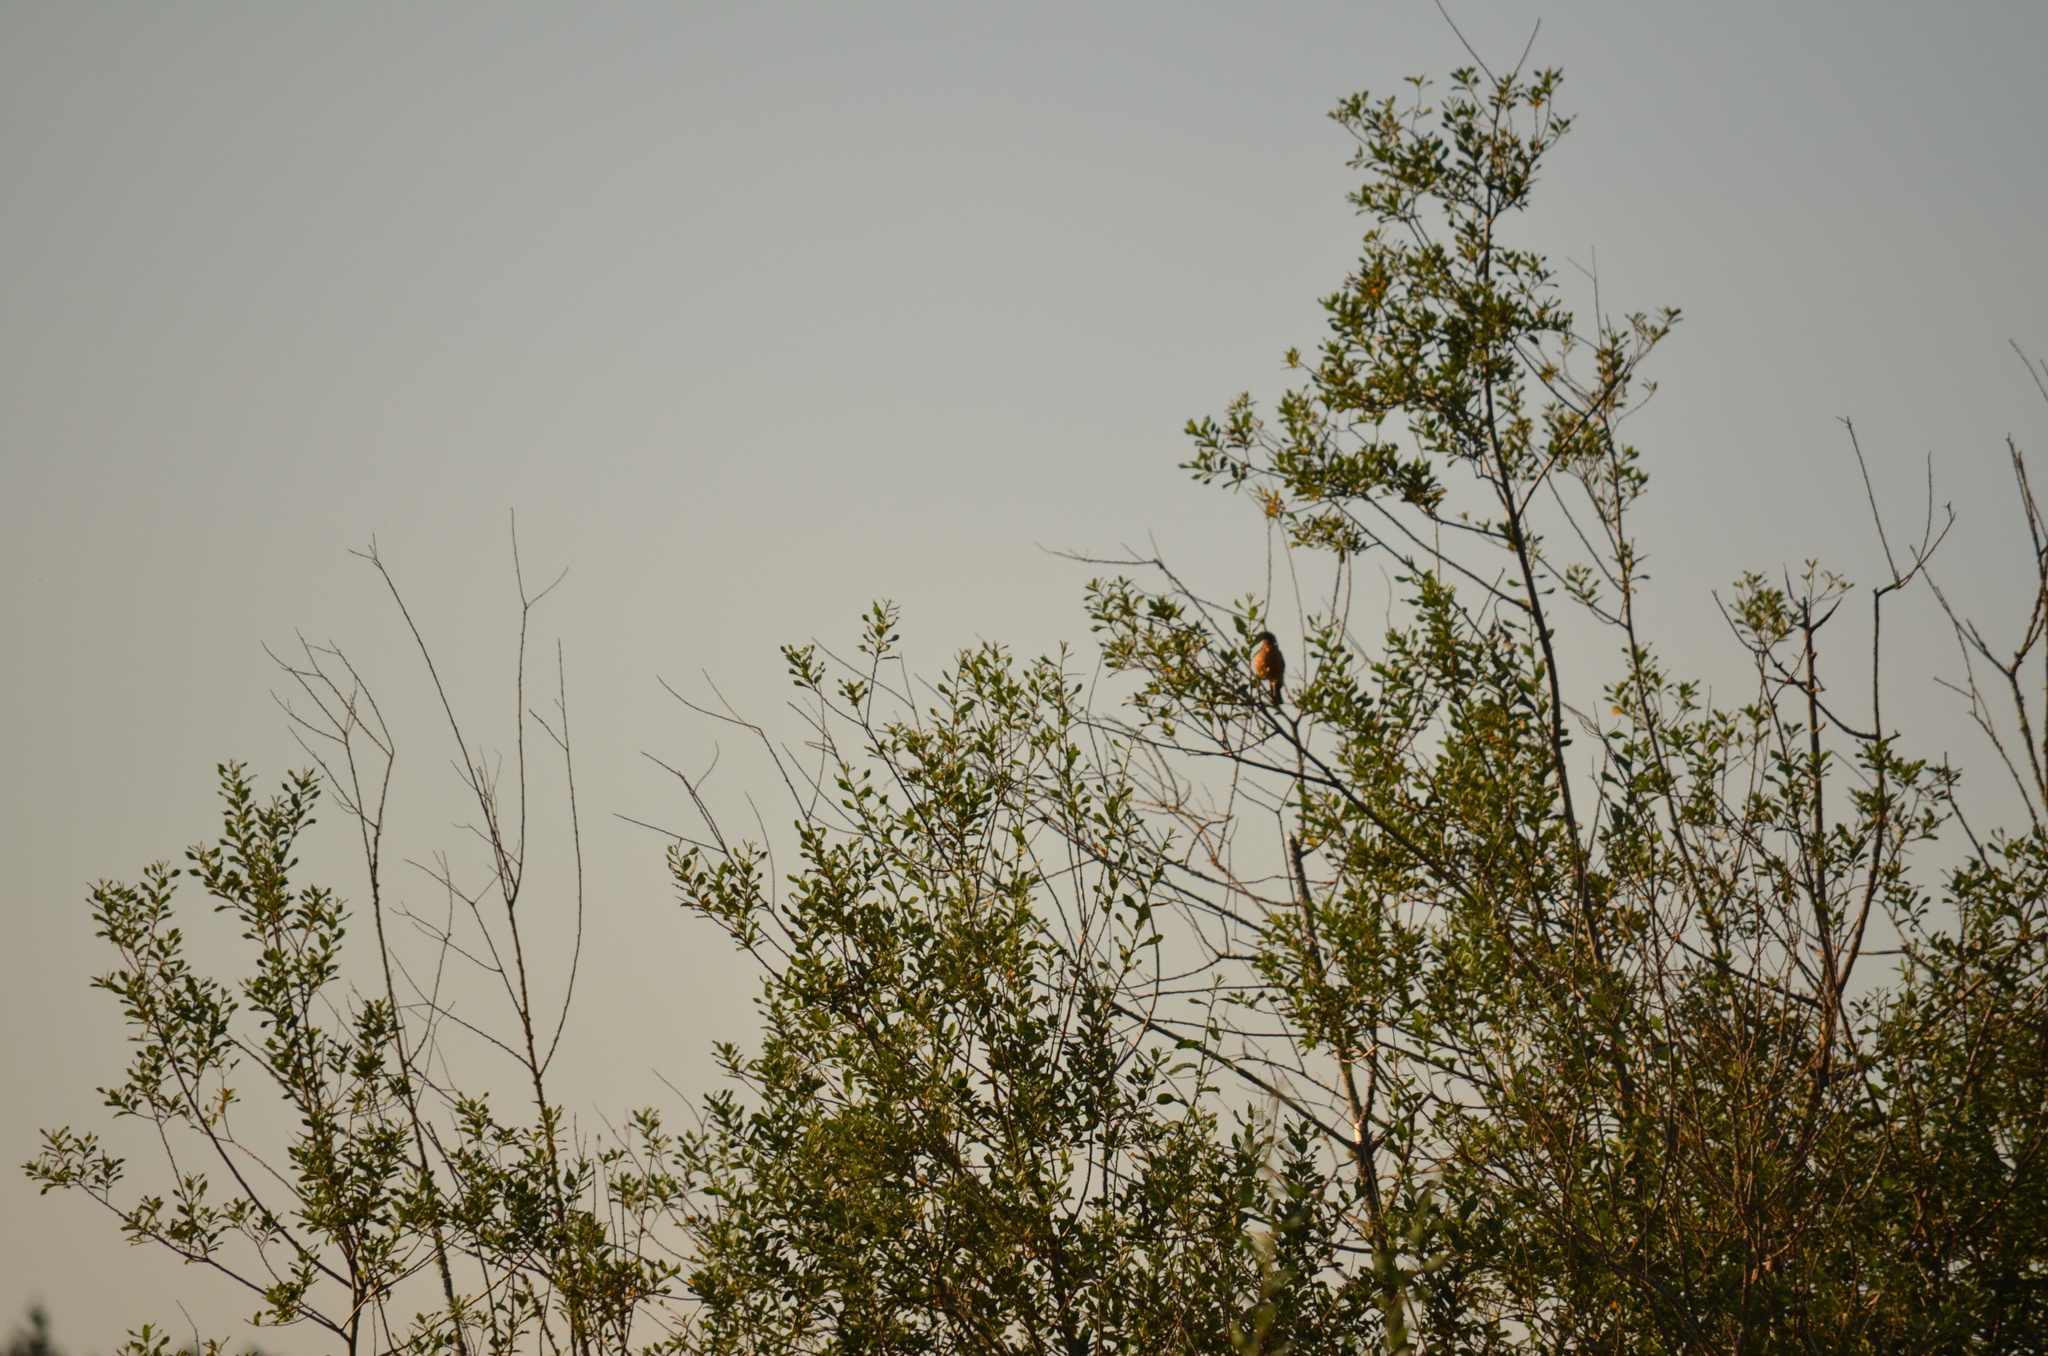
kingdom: Animalia
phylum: Chordata
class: Aves
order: Passeriformes
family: Cardinalidae
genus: Pheucticus
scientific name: Pheucticus melanocephalus
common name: Black-headed grosbeak
